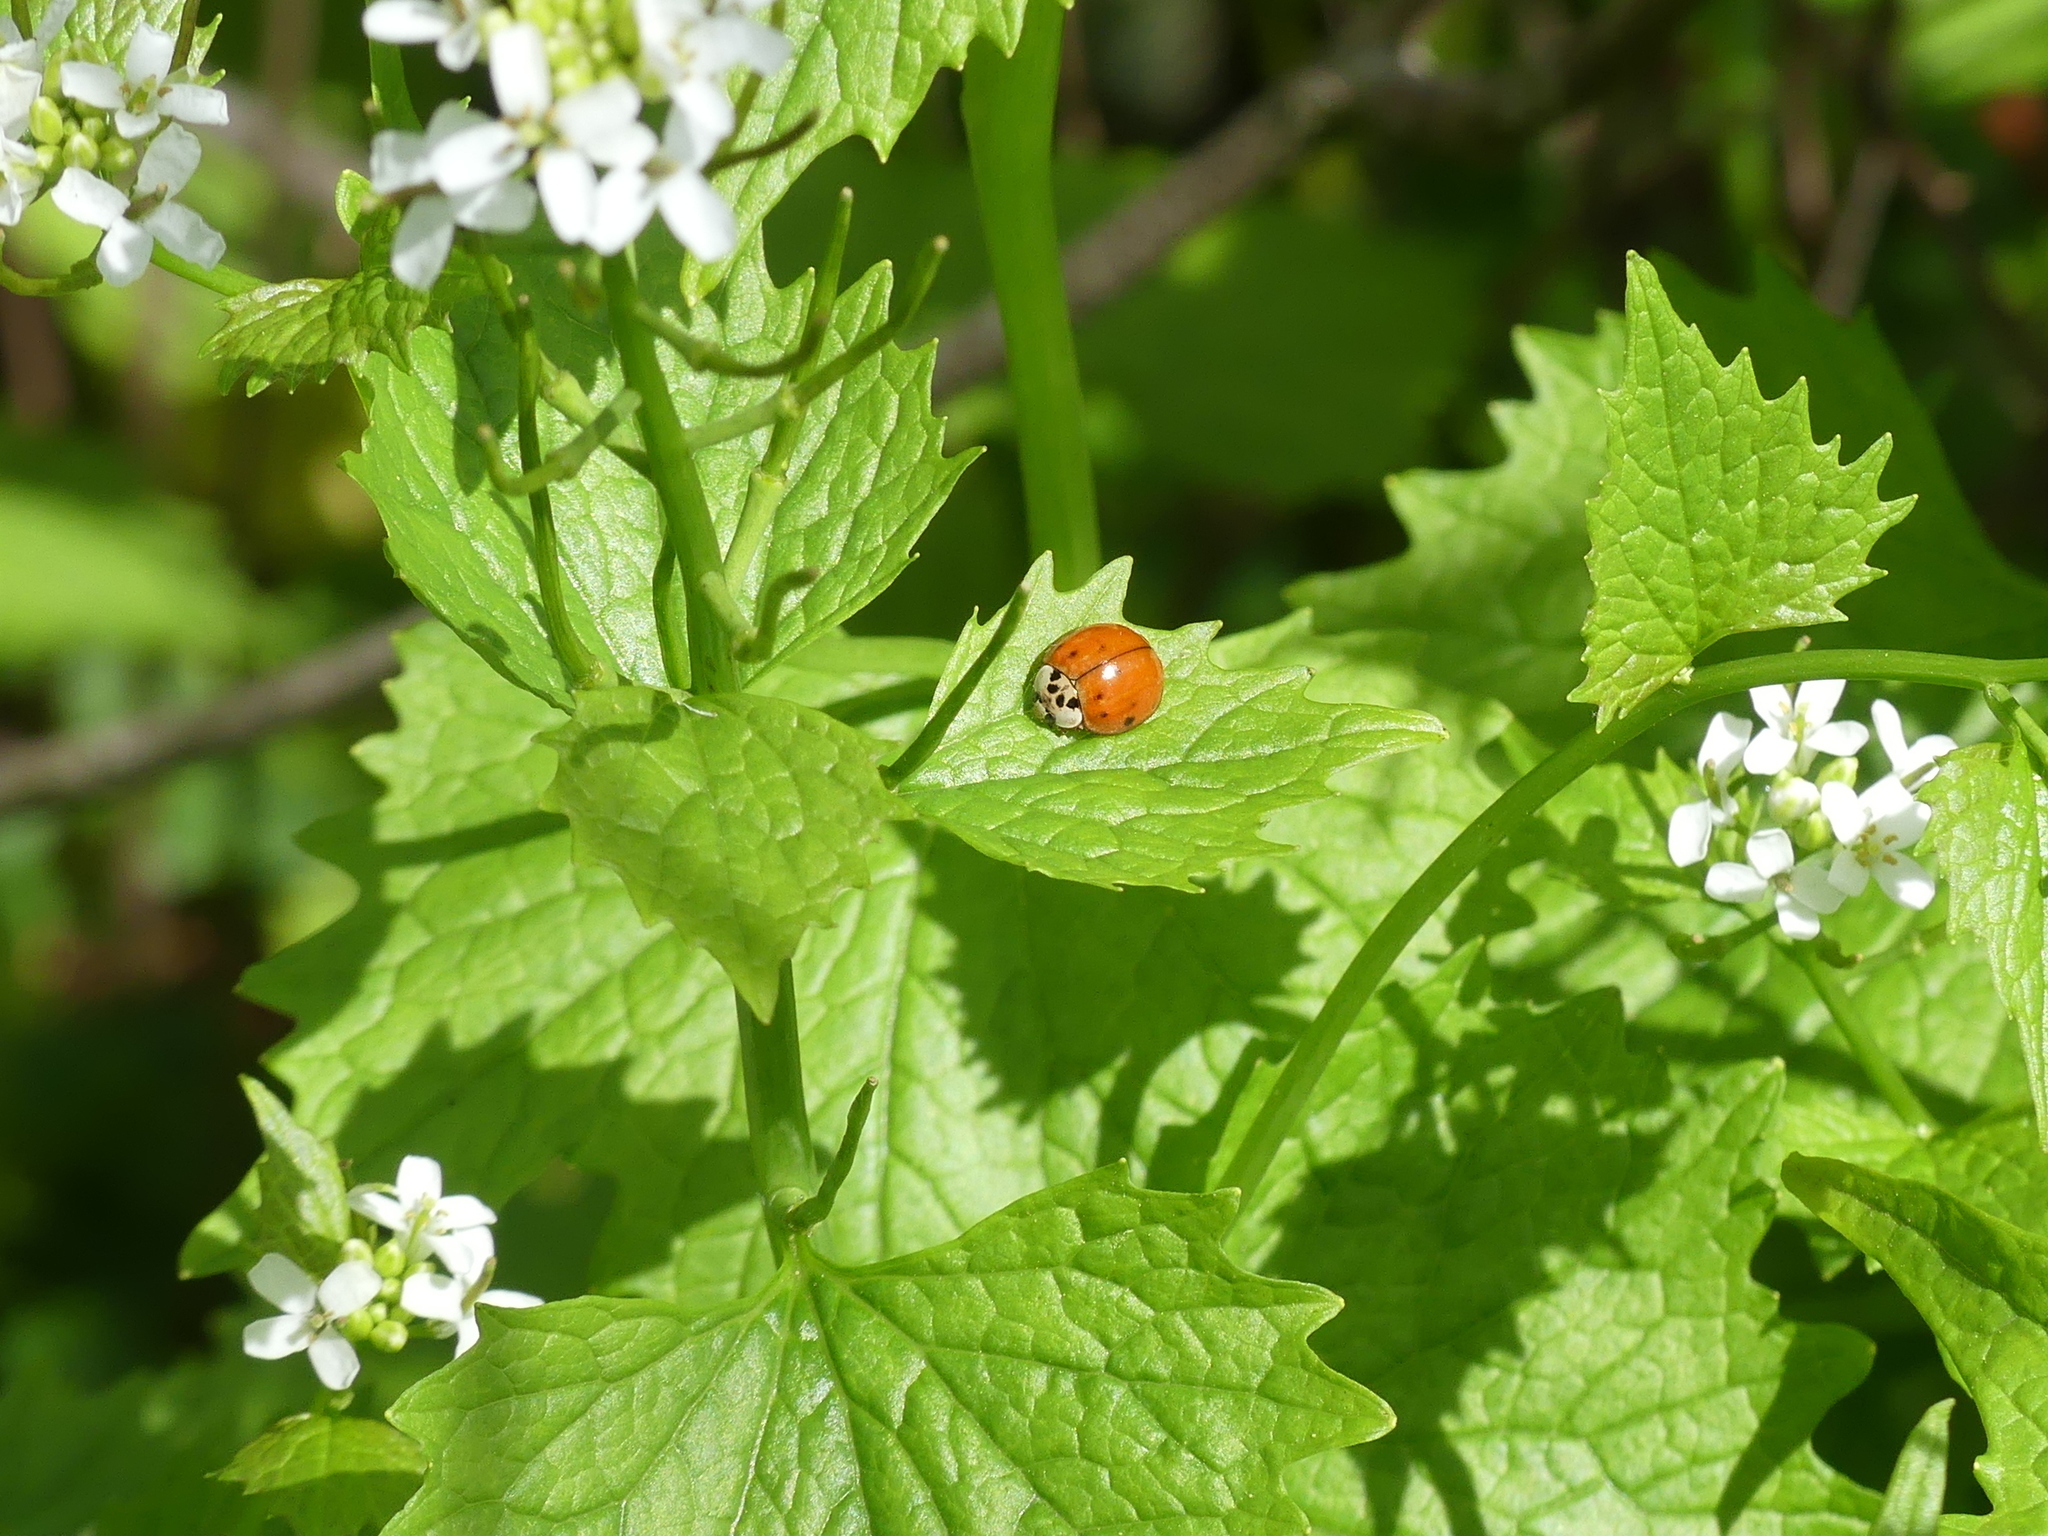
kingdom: Animalia
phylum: Arthropoda
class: Insecta
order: Coleoptera
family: Coccinellidae
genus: Harmonia
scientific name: Harmonia axyridis
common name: Harlequin ladybird
